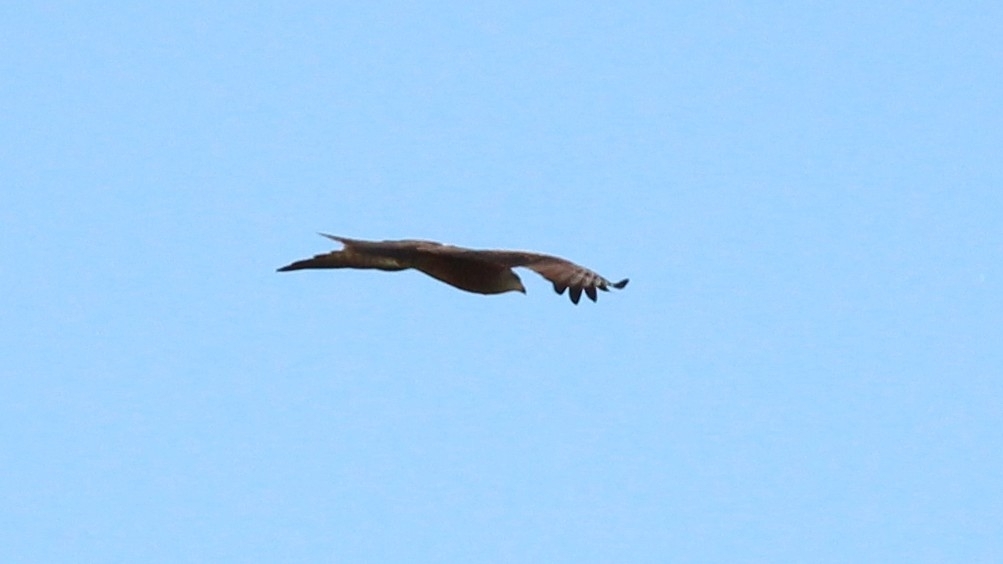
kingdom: Animalia
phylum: Chordata
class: Aves
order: Accipitriformes
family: Accipitridae
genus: Milvus
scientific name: Milvus migrans
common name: Black kite
